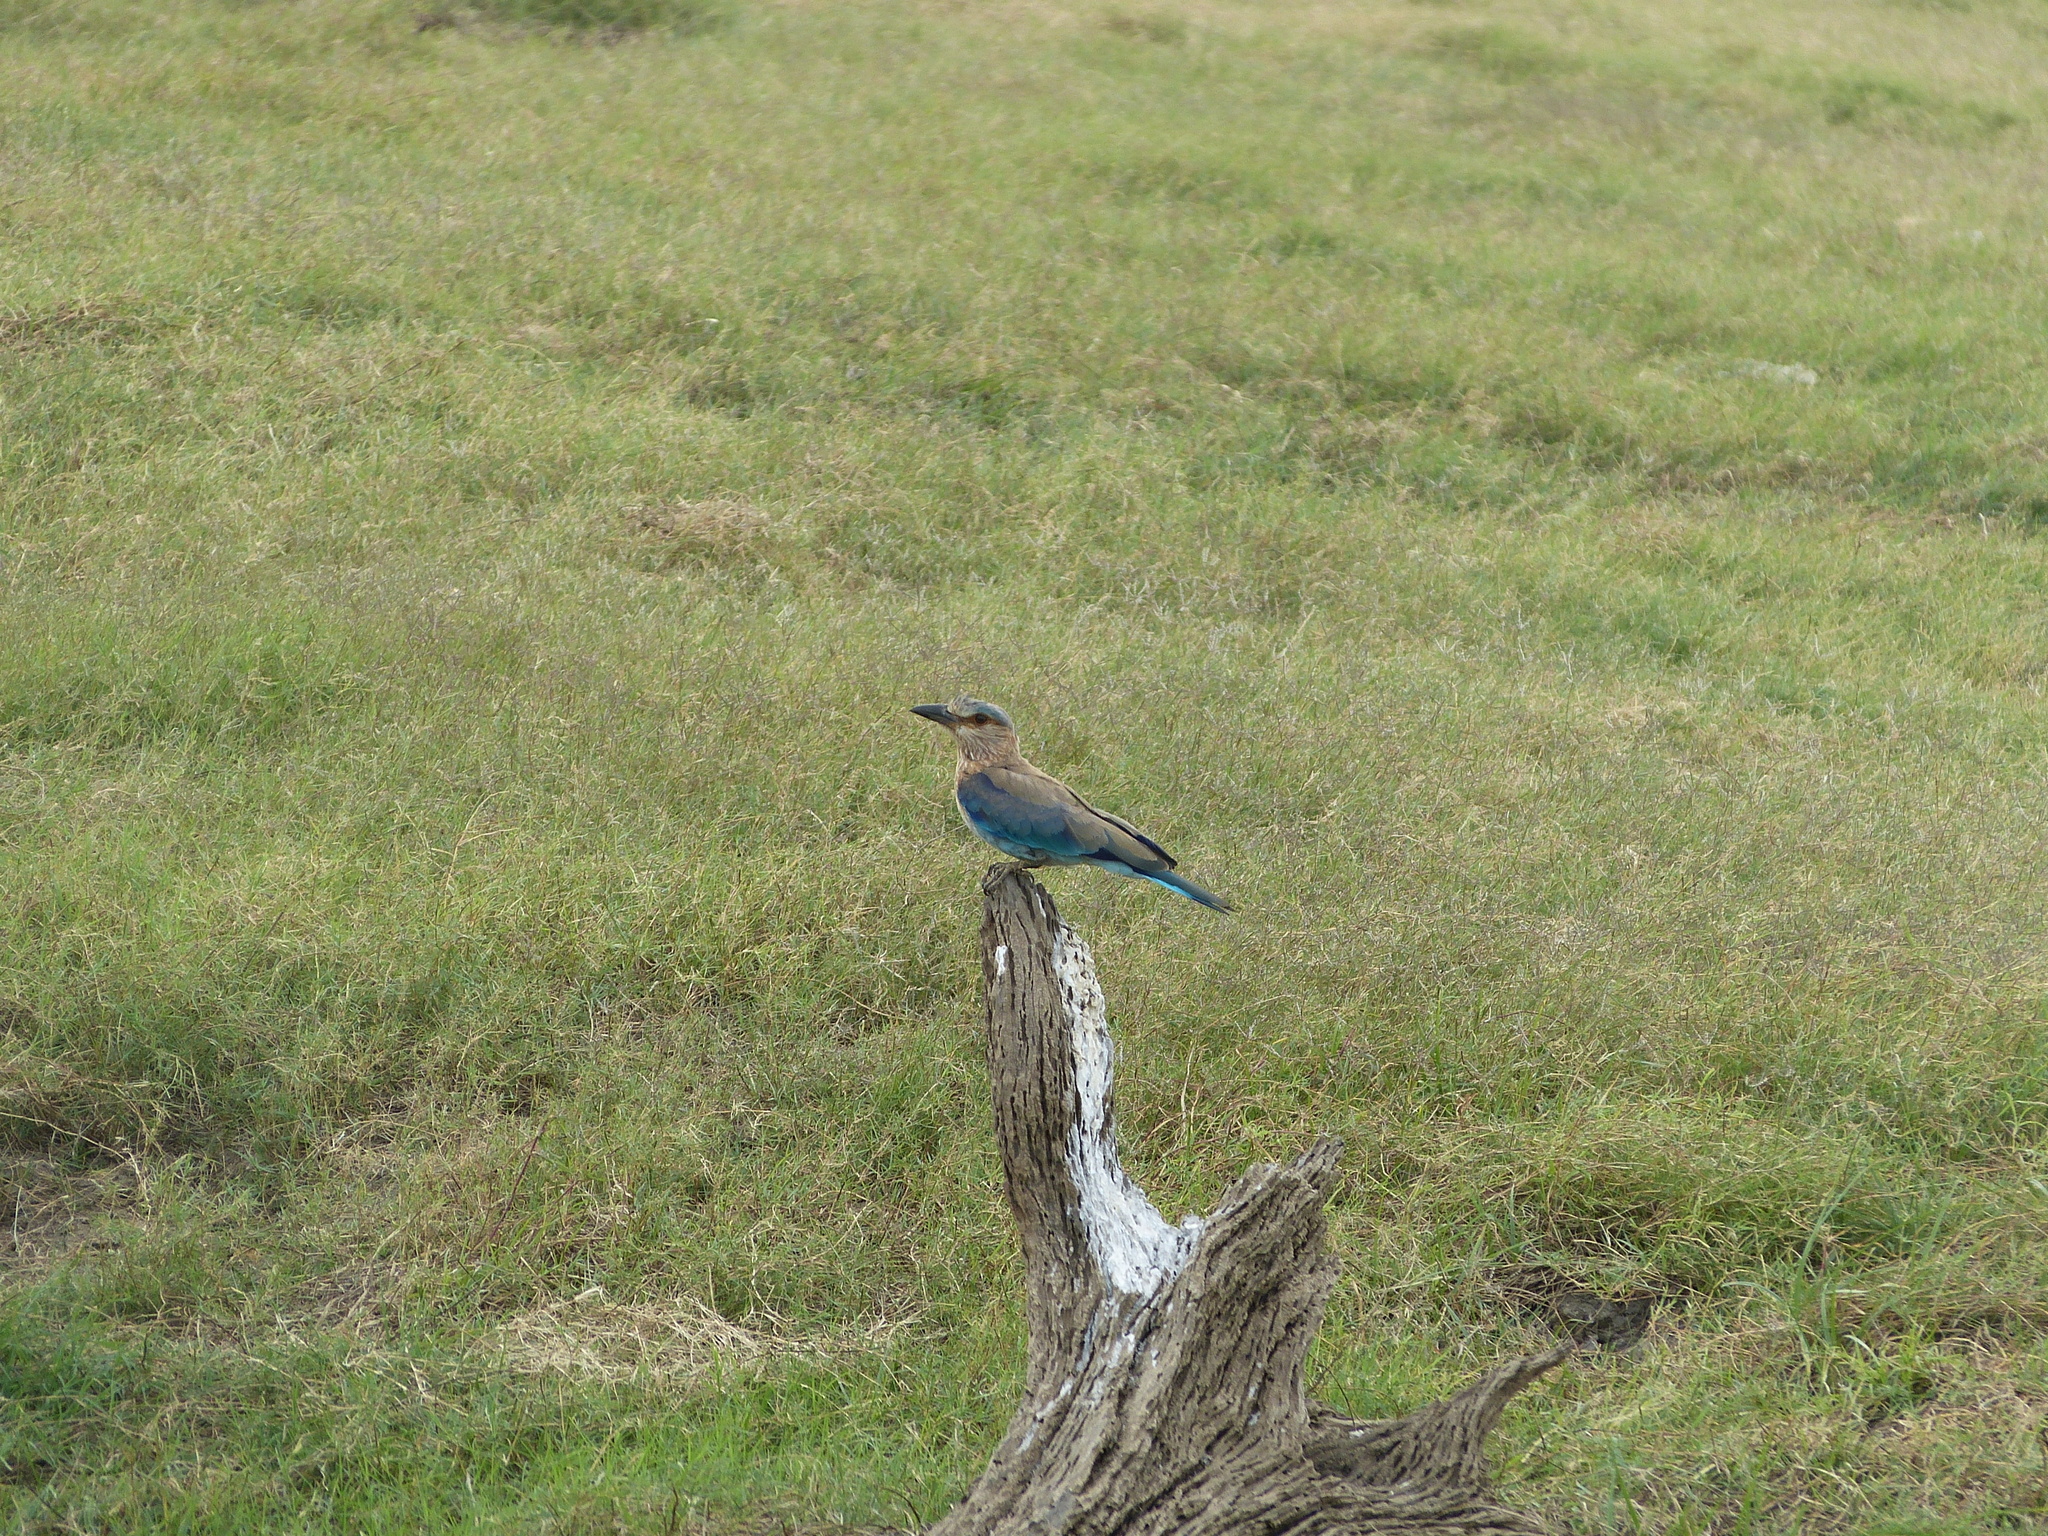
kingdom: Animalia
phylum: Chordata
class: Aves
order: Coraciiformes
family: Coraciidae
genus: Coracias
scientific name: Coracias benghalensis
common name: Indian roller
